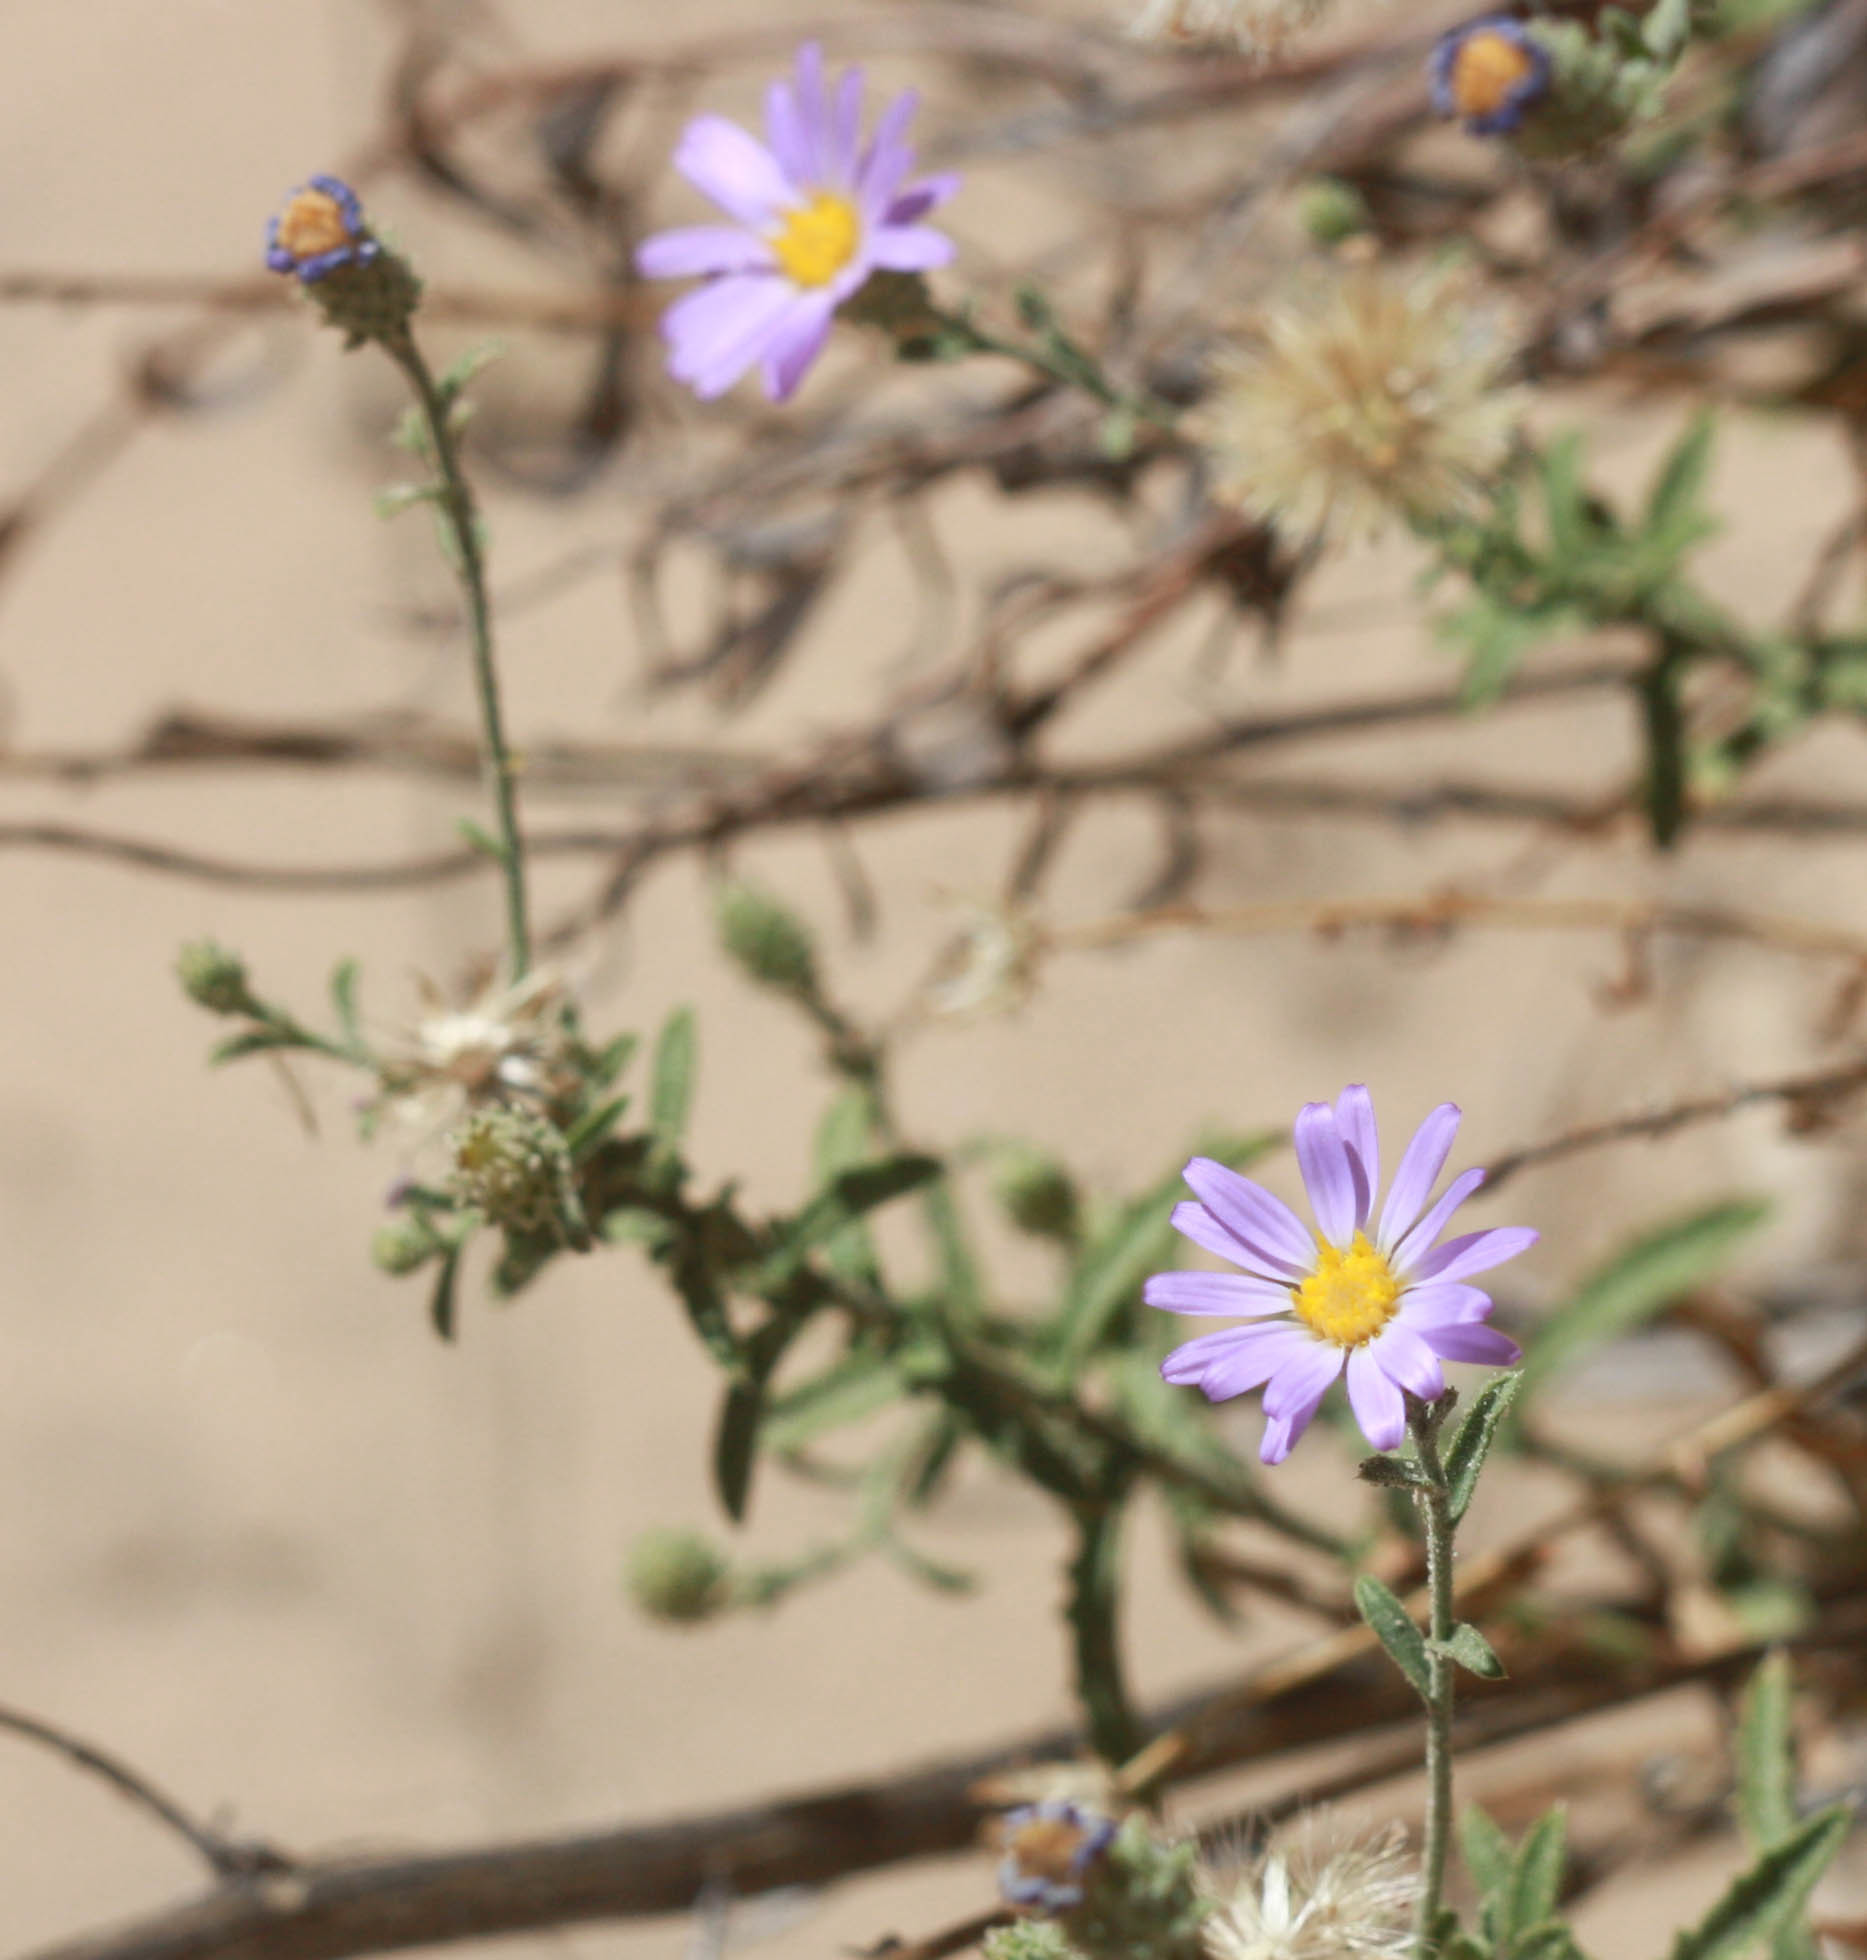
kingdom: Plantae
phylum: Tracheophyta
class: Magnoliopsida
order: Asterales
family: Asteraceae
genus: Dieteria
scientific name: Dieteria canescens
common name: Hoary-aster
